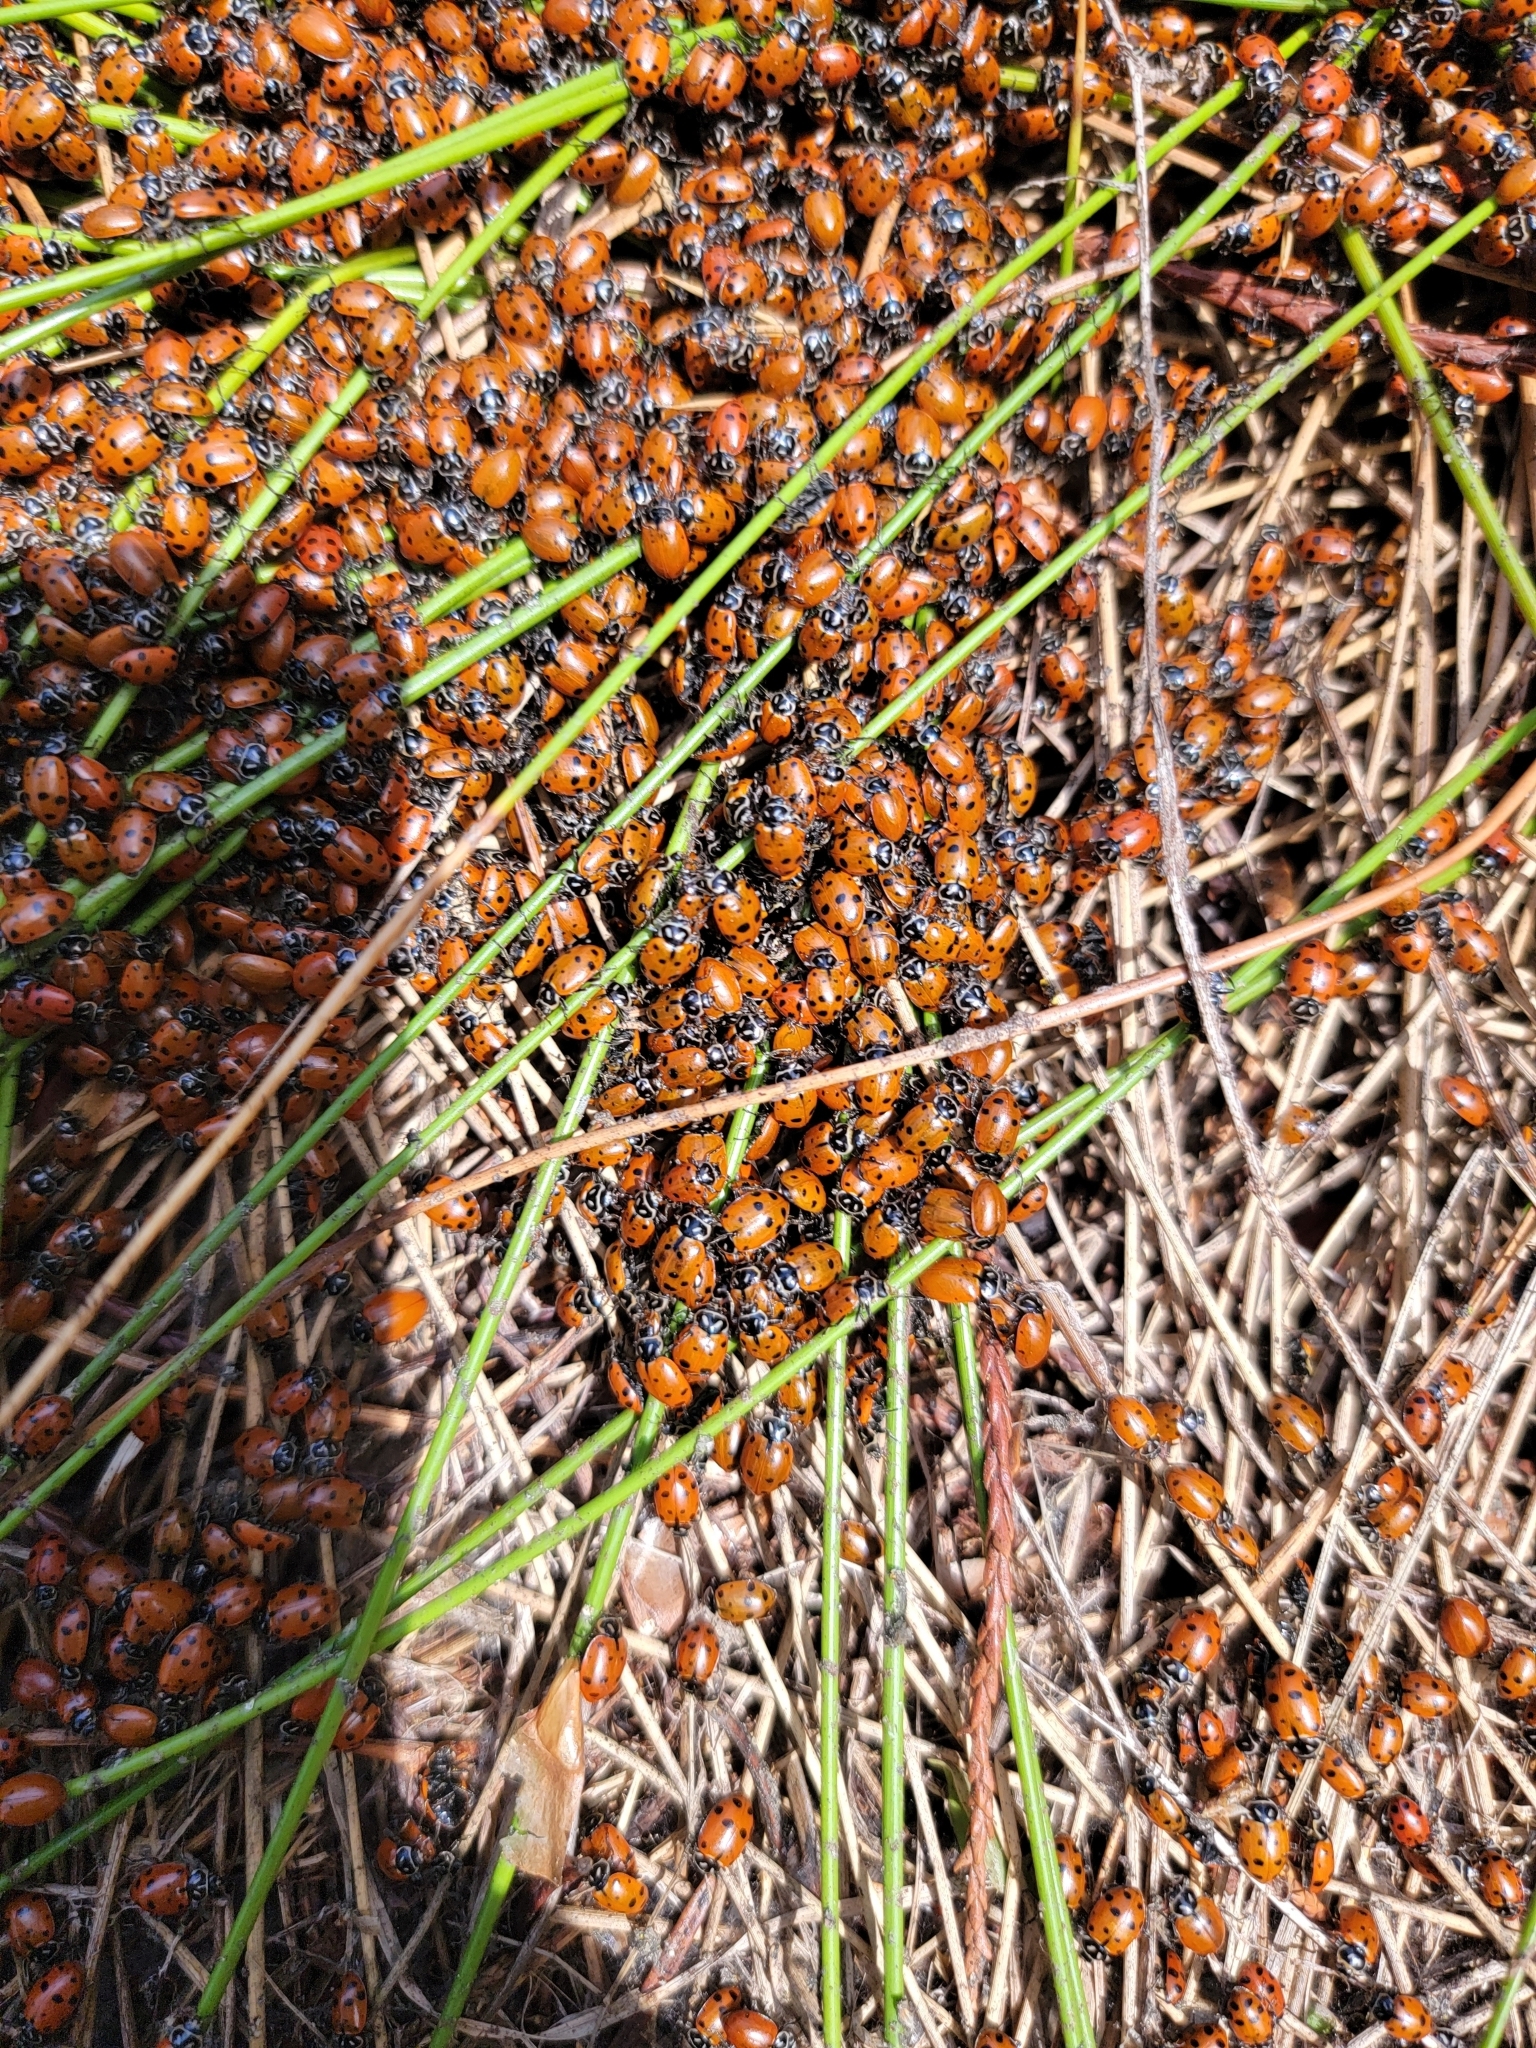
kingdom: Animalia
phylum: Arthropoda
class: Insecta
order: Coleoptera
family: Coccinellidae
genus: Hippodamia
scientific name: Hippodamia convergens
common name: Convergent lady beetle
